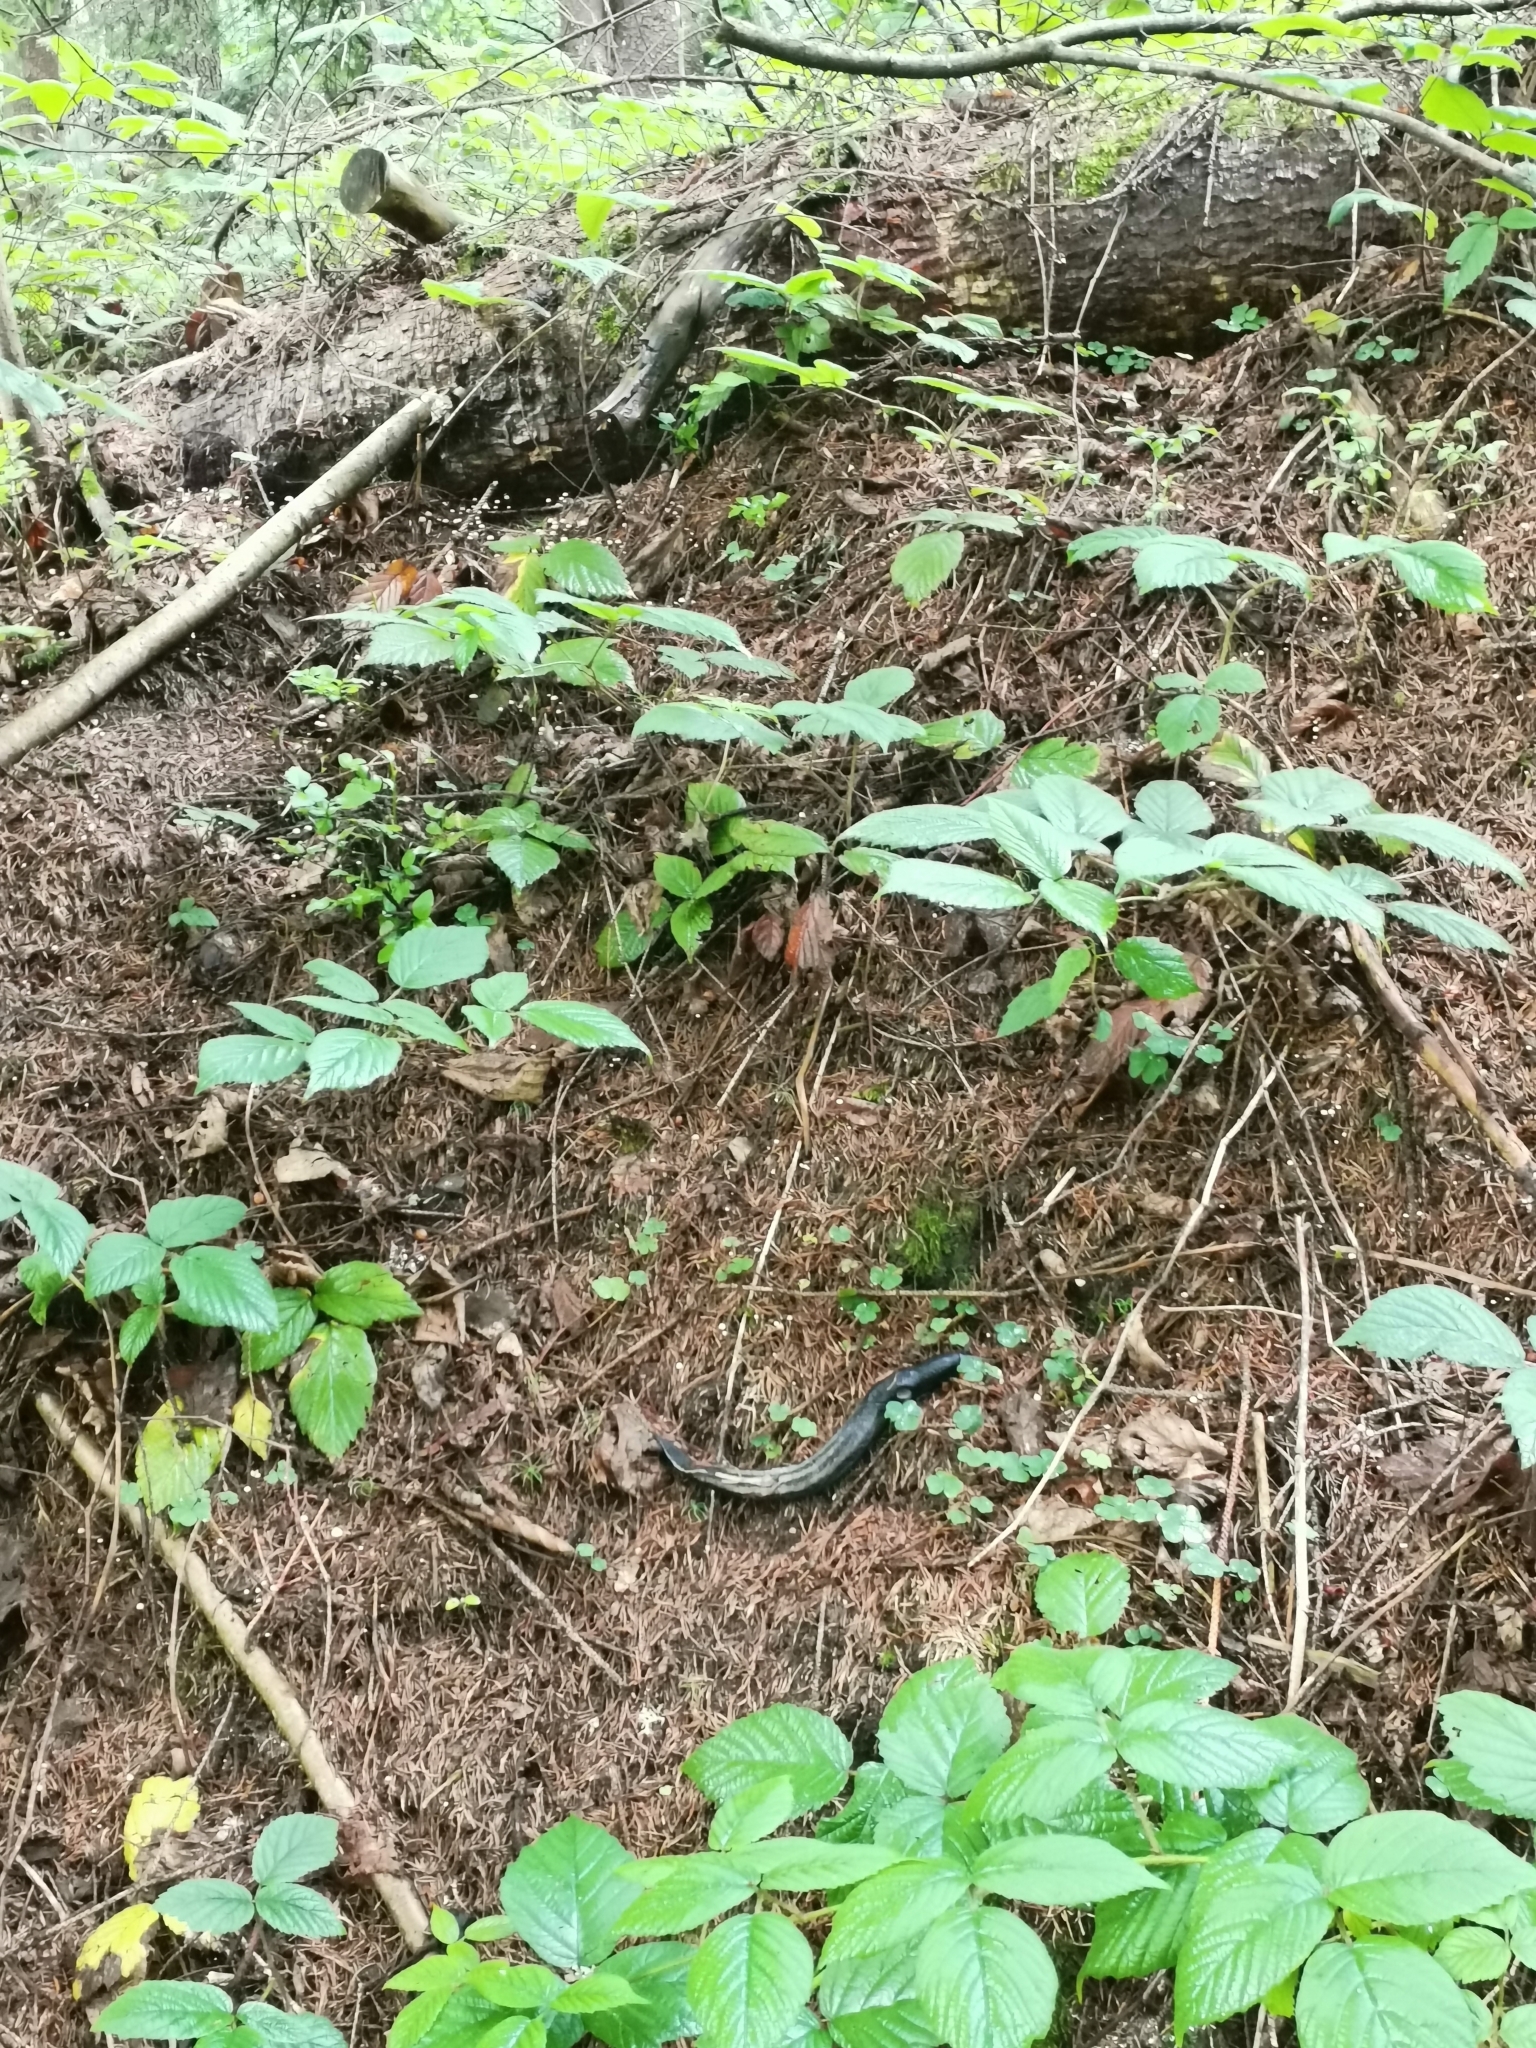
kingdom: Animalia
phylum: Mollusca
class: Gastropoda
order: Stylommatophora
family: Limacidae
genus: Limax
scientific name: Limax cinereoniger
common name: Ash-black slug
